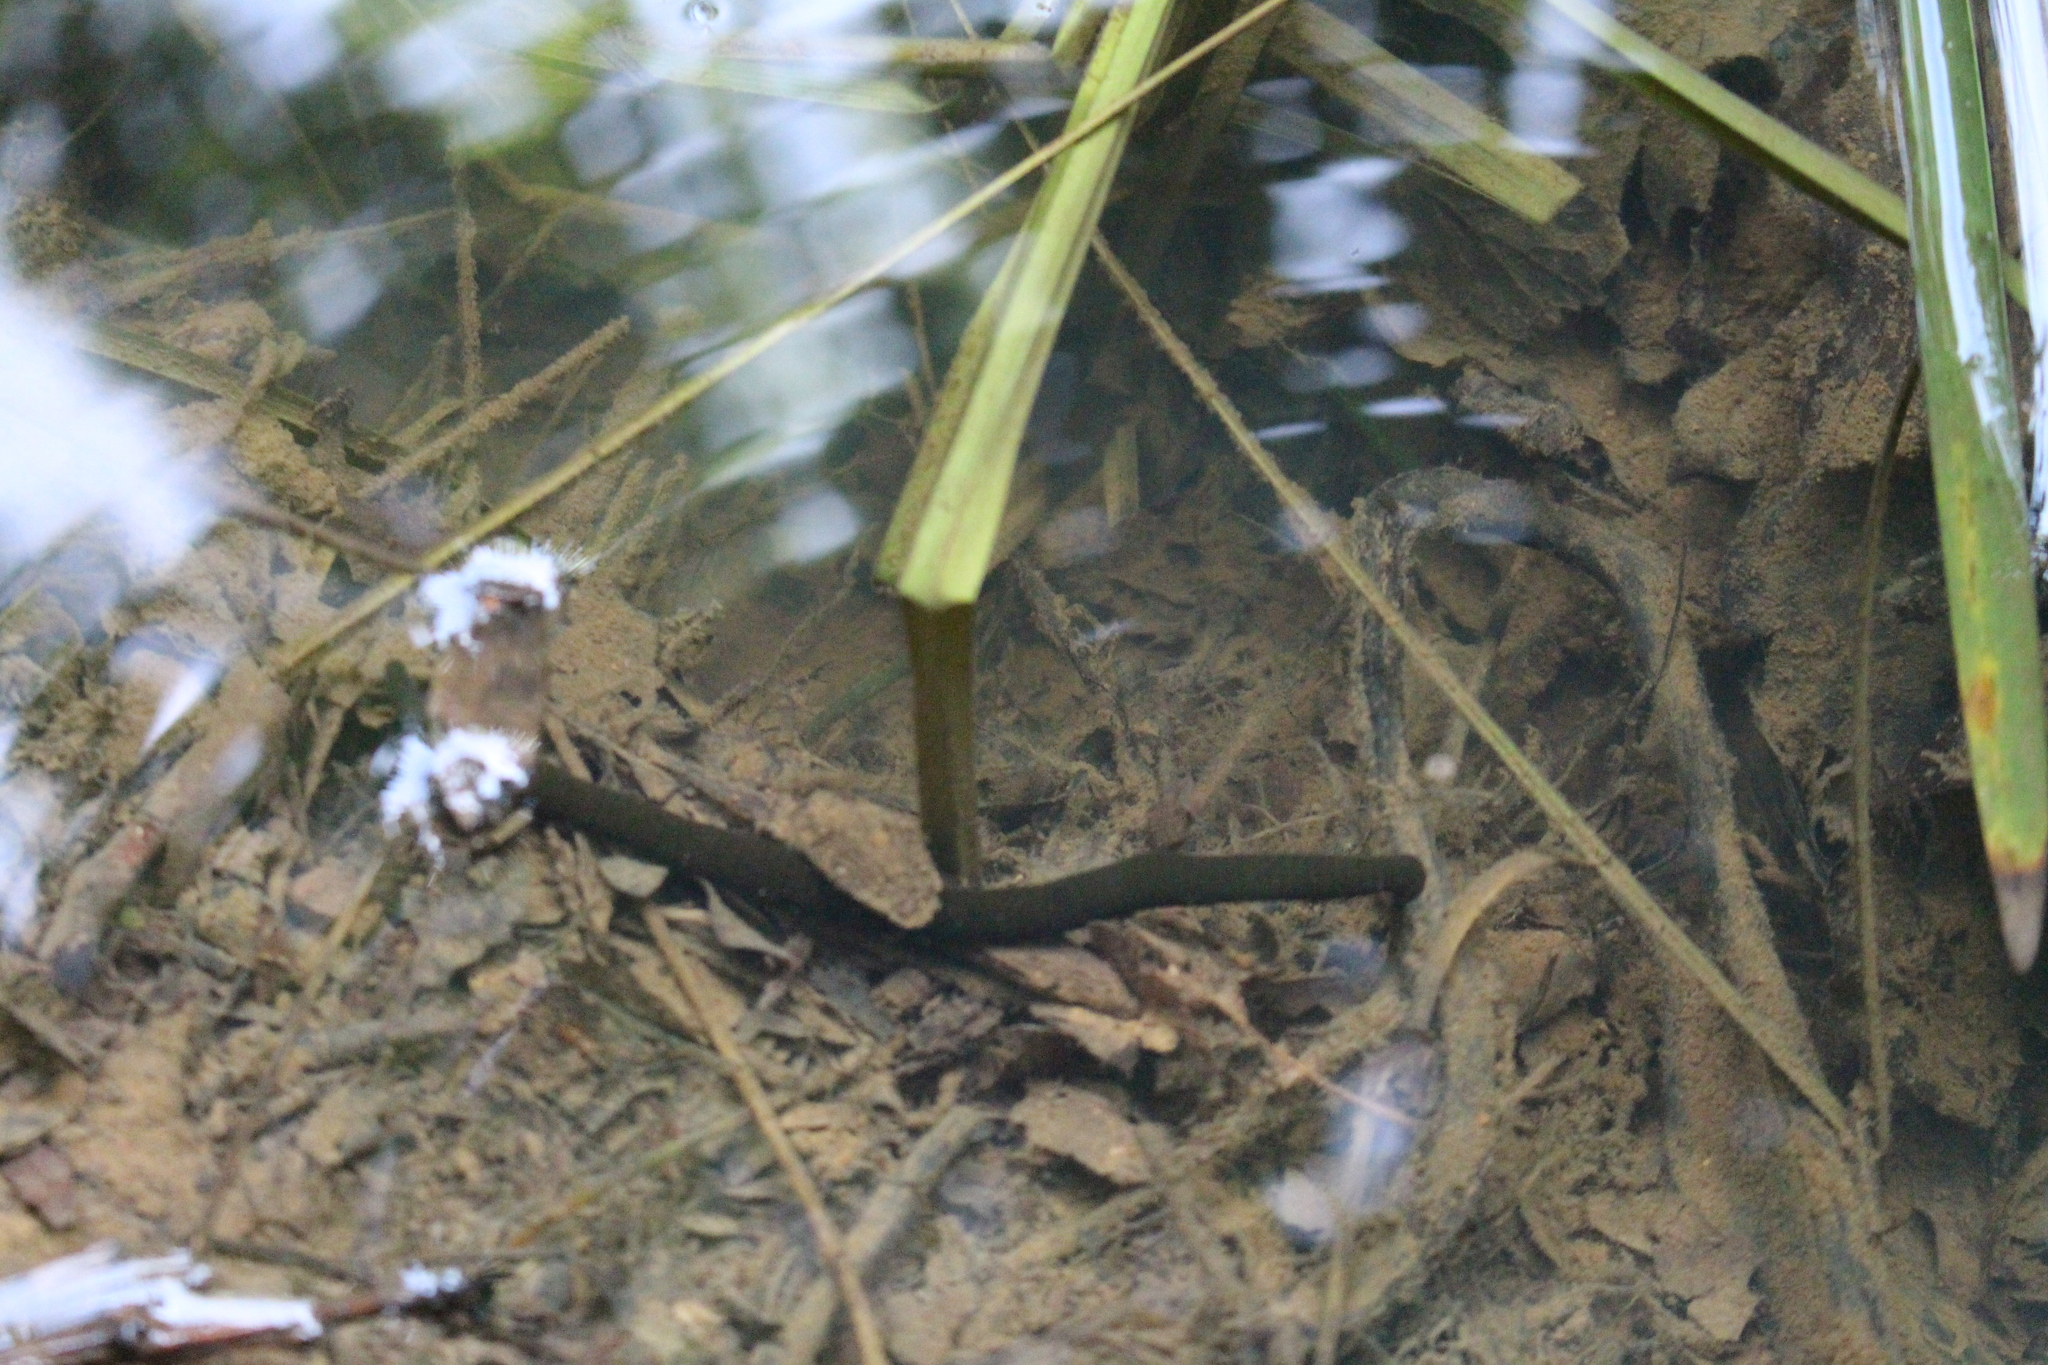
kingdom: Animalia
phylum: Annelida
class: Clitellata
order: Arhynchobdellida
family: Haemopidae
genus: Haemopis
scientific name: Haemopis sanguisuga
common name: Horse leech
